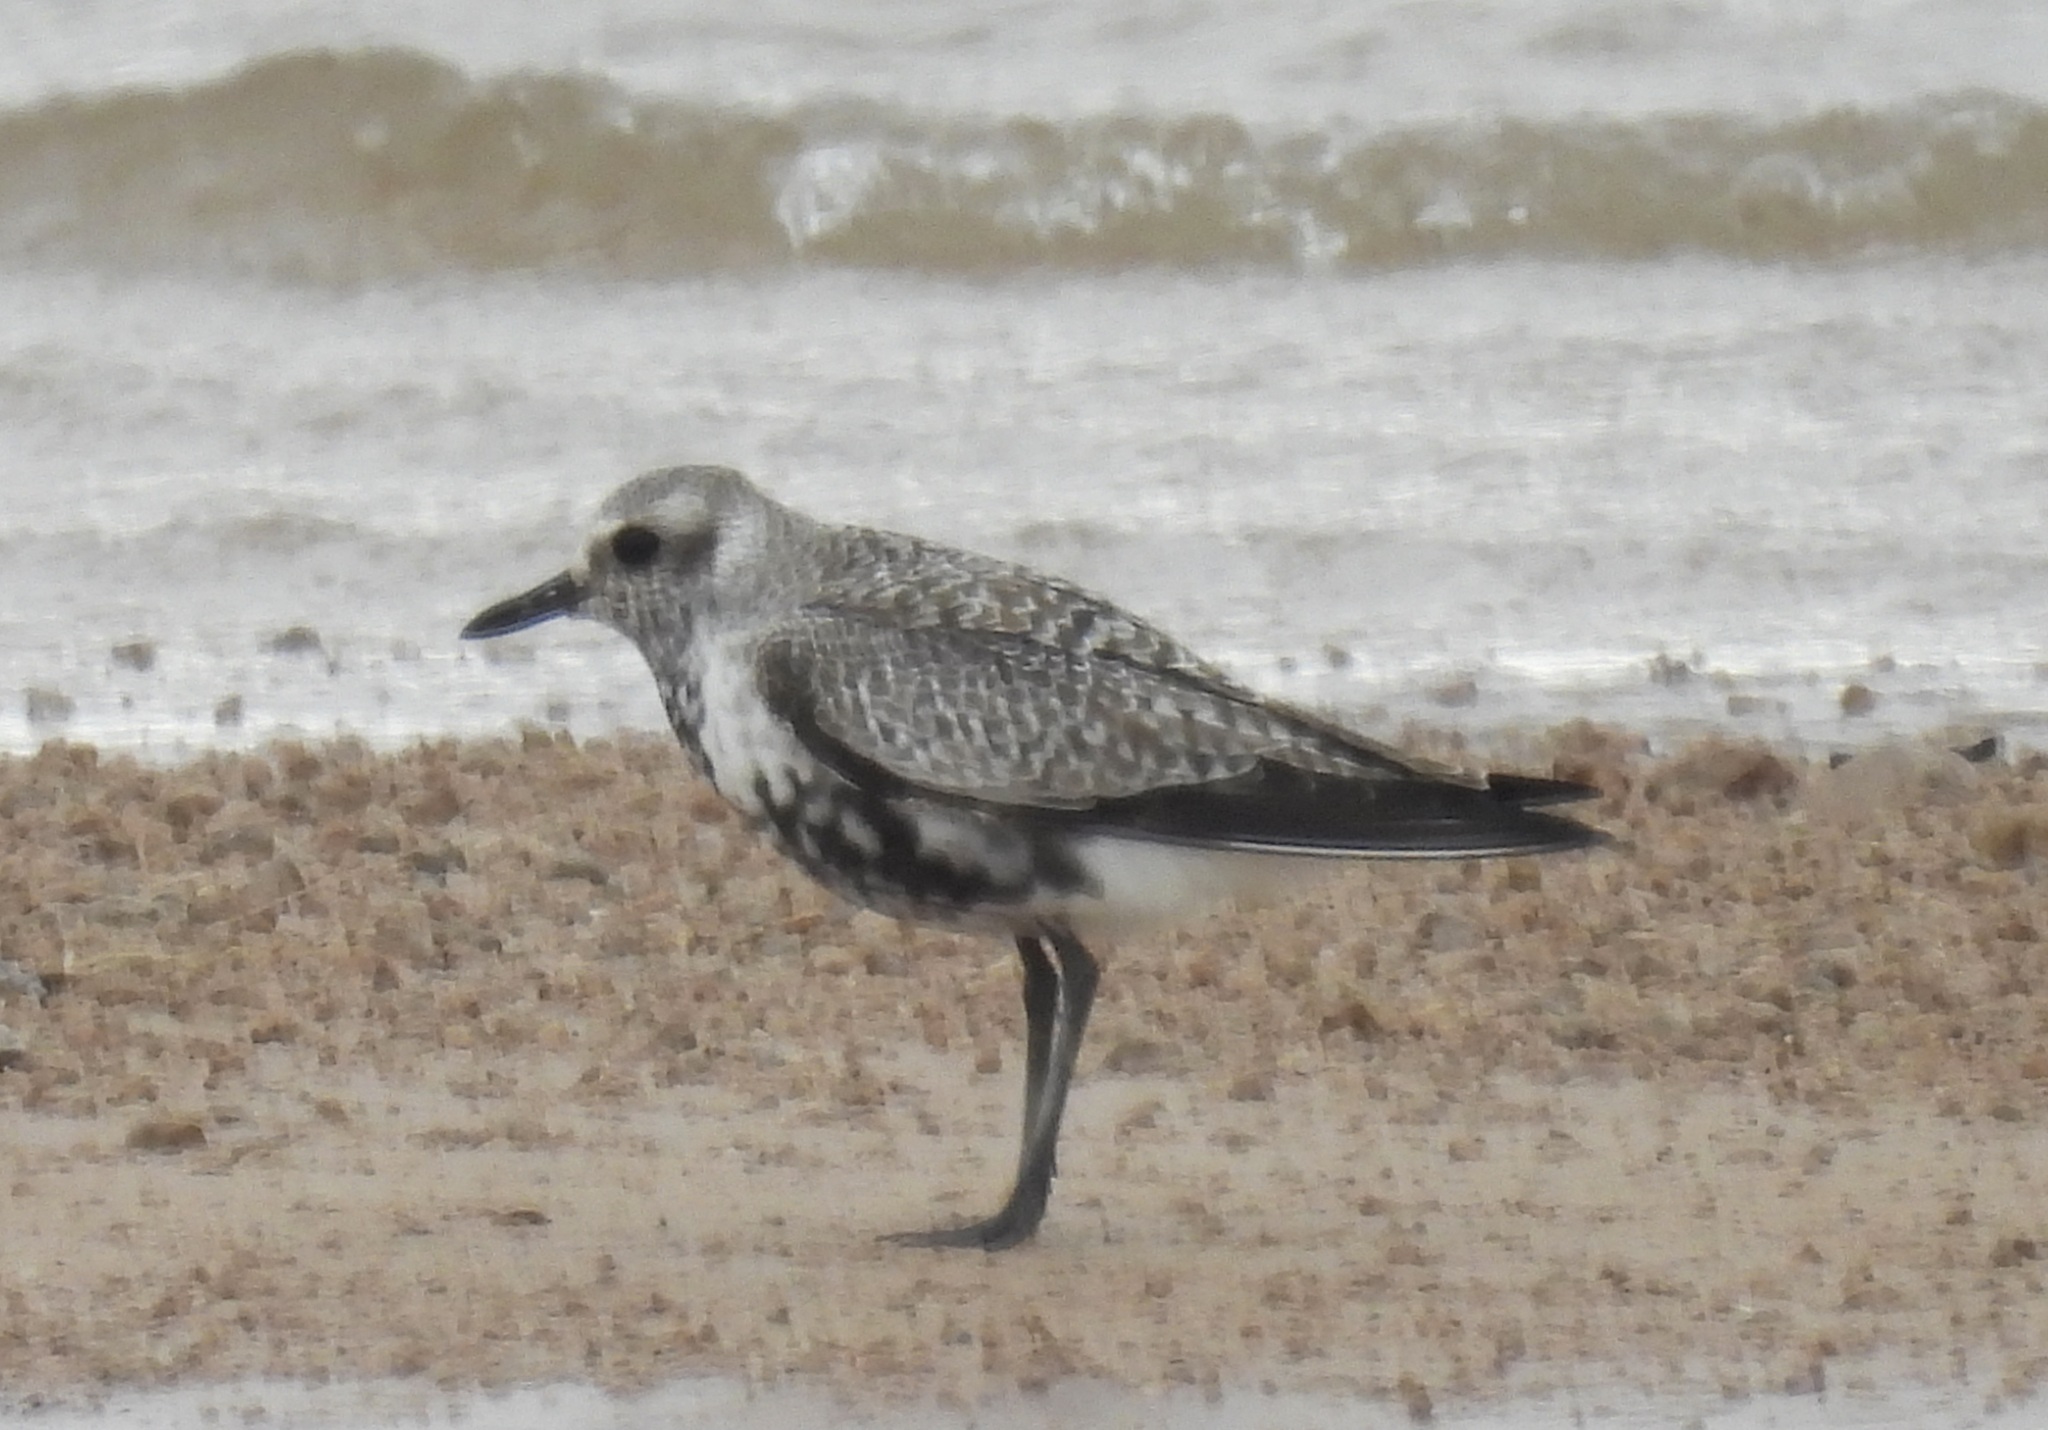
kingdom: Animalia
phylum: Chordata
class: Aves
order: Charadriiformes
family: Charadriidae
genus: Pluvialis
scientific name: Pluvialis squatarola
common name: Grey plover
